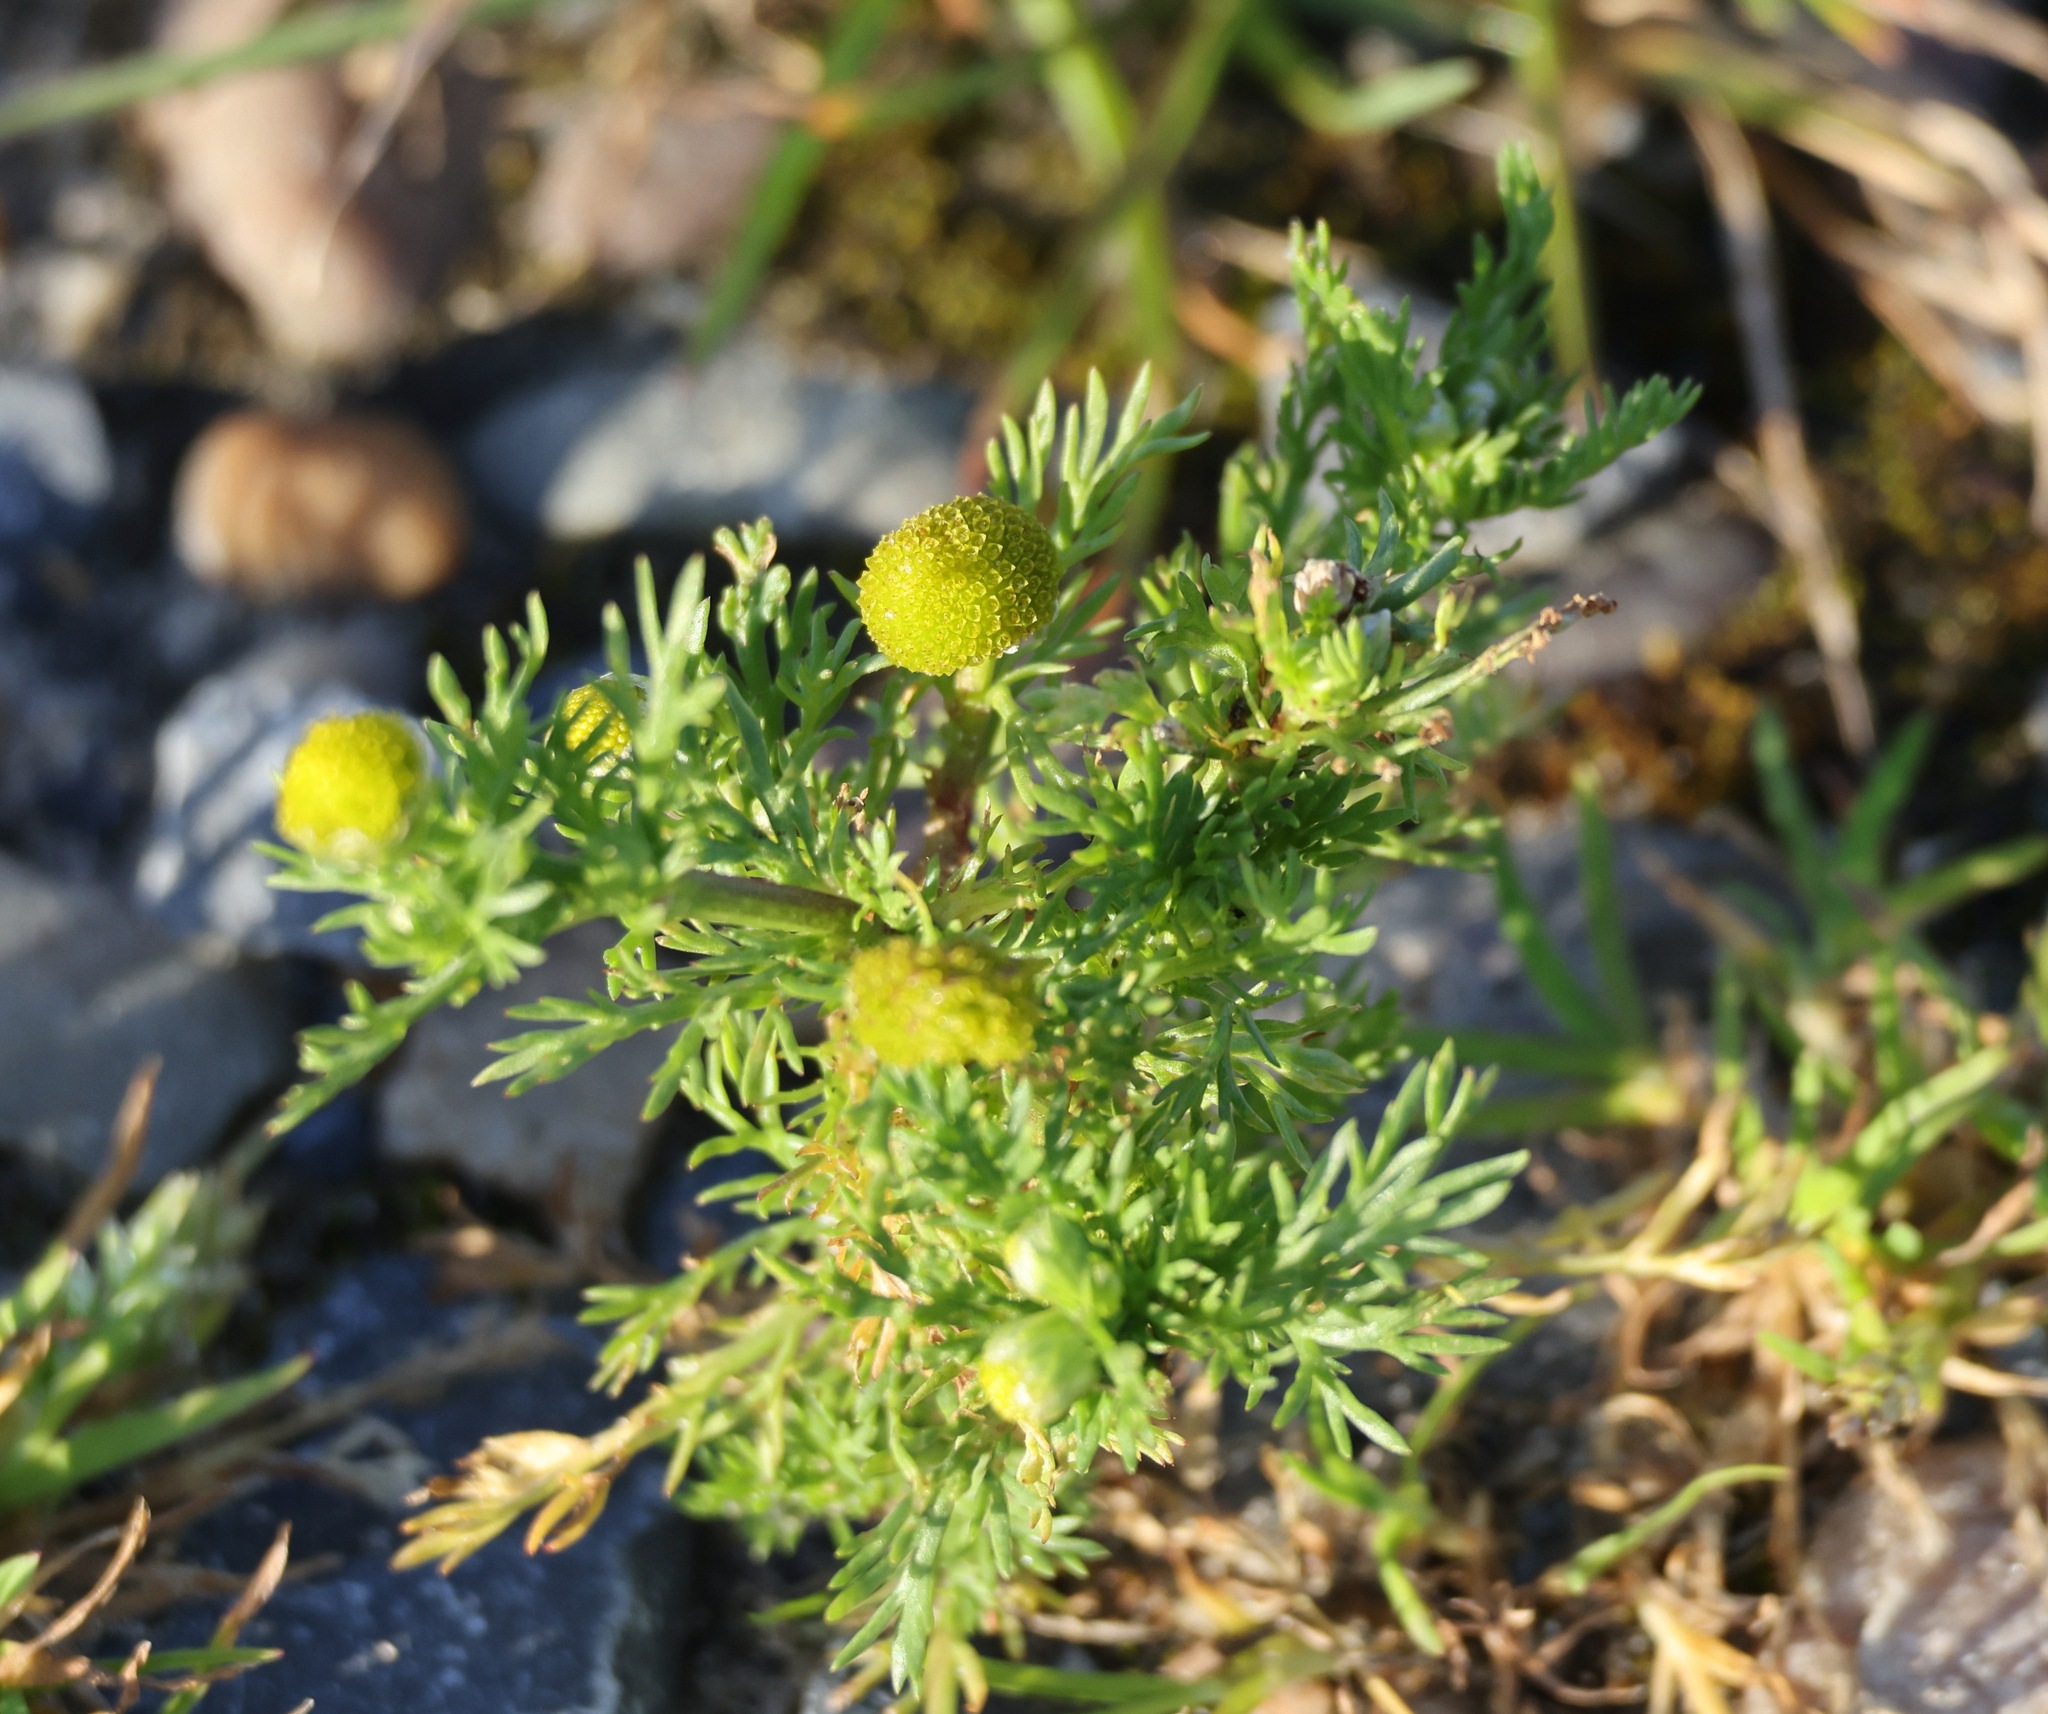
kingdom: Plantae
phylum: Tracheophyta
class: Magnoliopsida
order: Asterales
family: Asteraceae
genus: Matricaria
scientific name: Matricaria discoidea
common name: Disc mayweed
